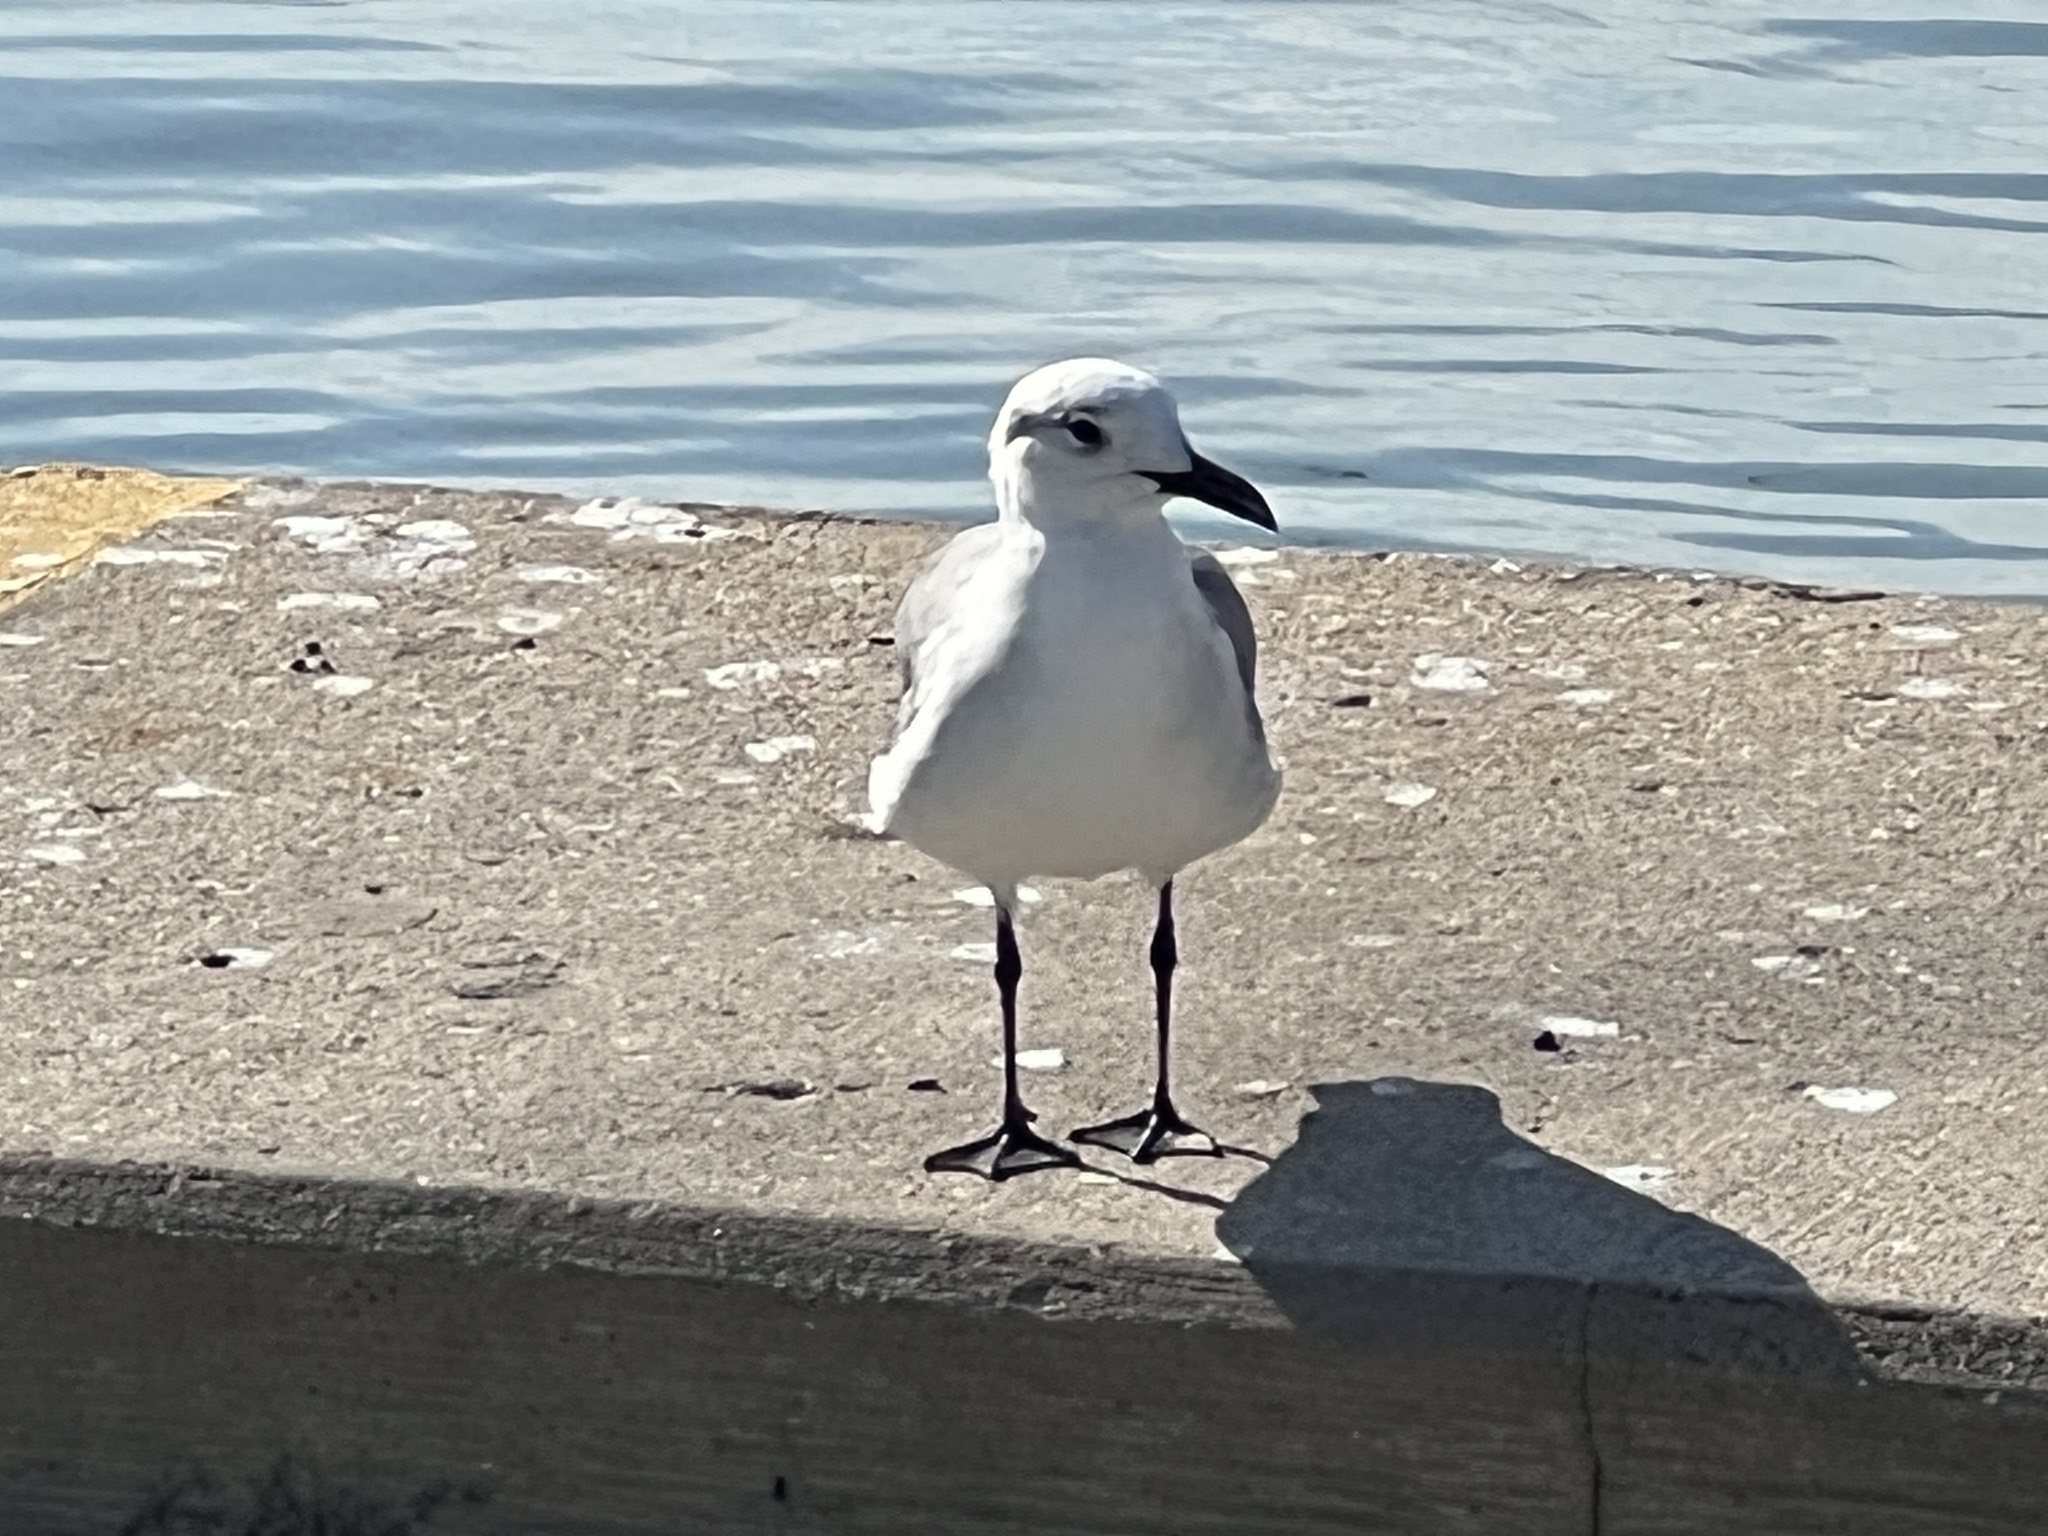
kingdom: Animalia
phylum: Chordata
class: Aves
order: Charadriiformes
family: Laridae
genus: Leucophaeus
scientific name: Leucophaeus atricilla
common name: Laughing gull
